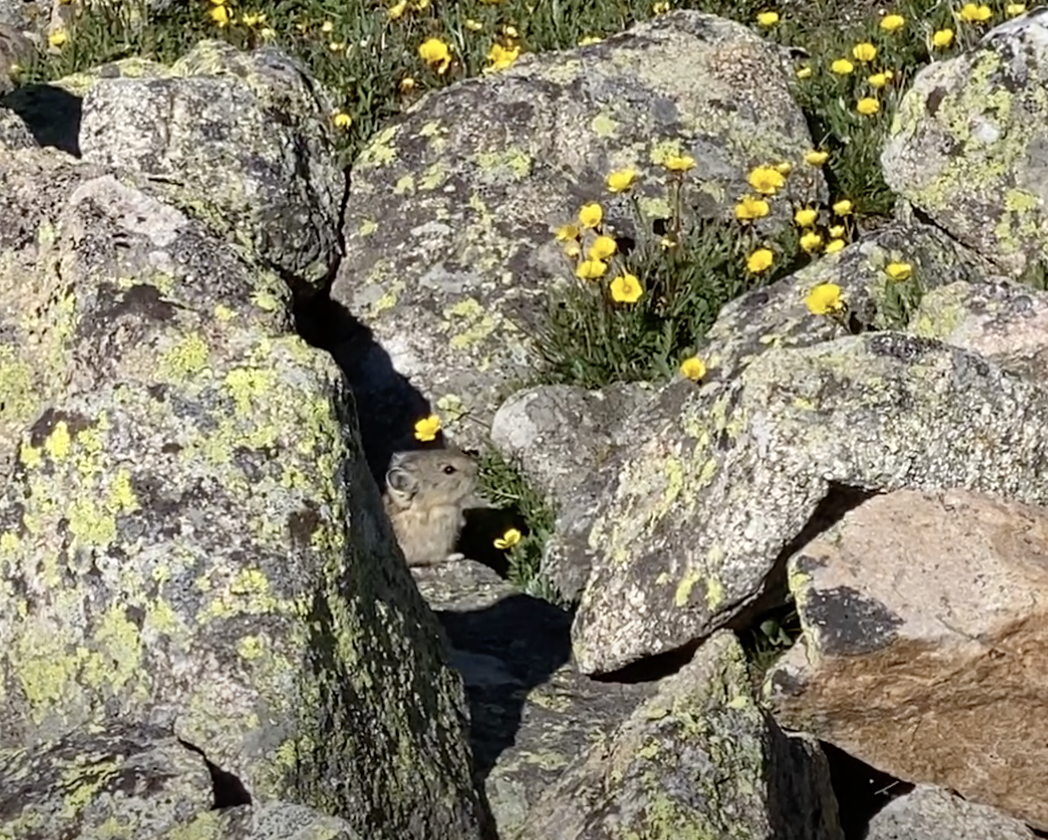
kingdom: Animalia
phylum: Chordata
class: Mammalia
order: Lagomorpha
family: Ochotonidae
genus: Ochotona
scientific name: Ochotona princeps
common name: American pika
